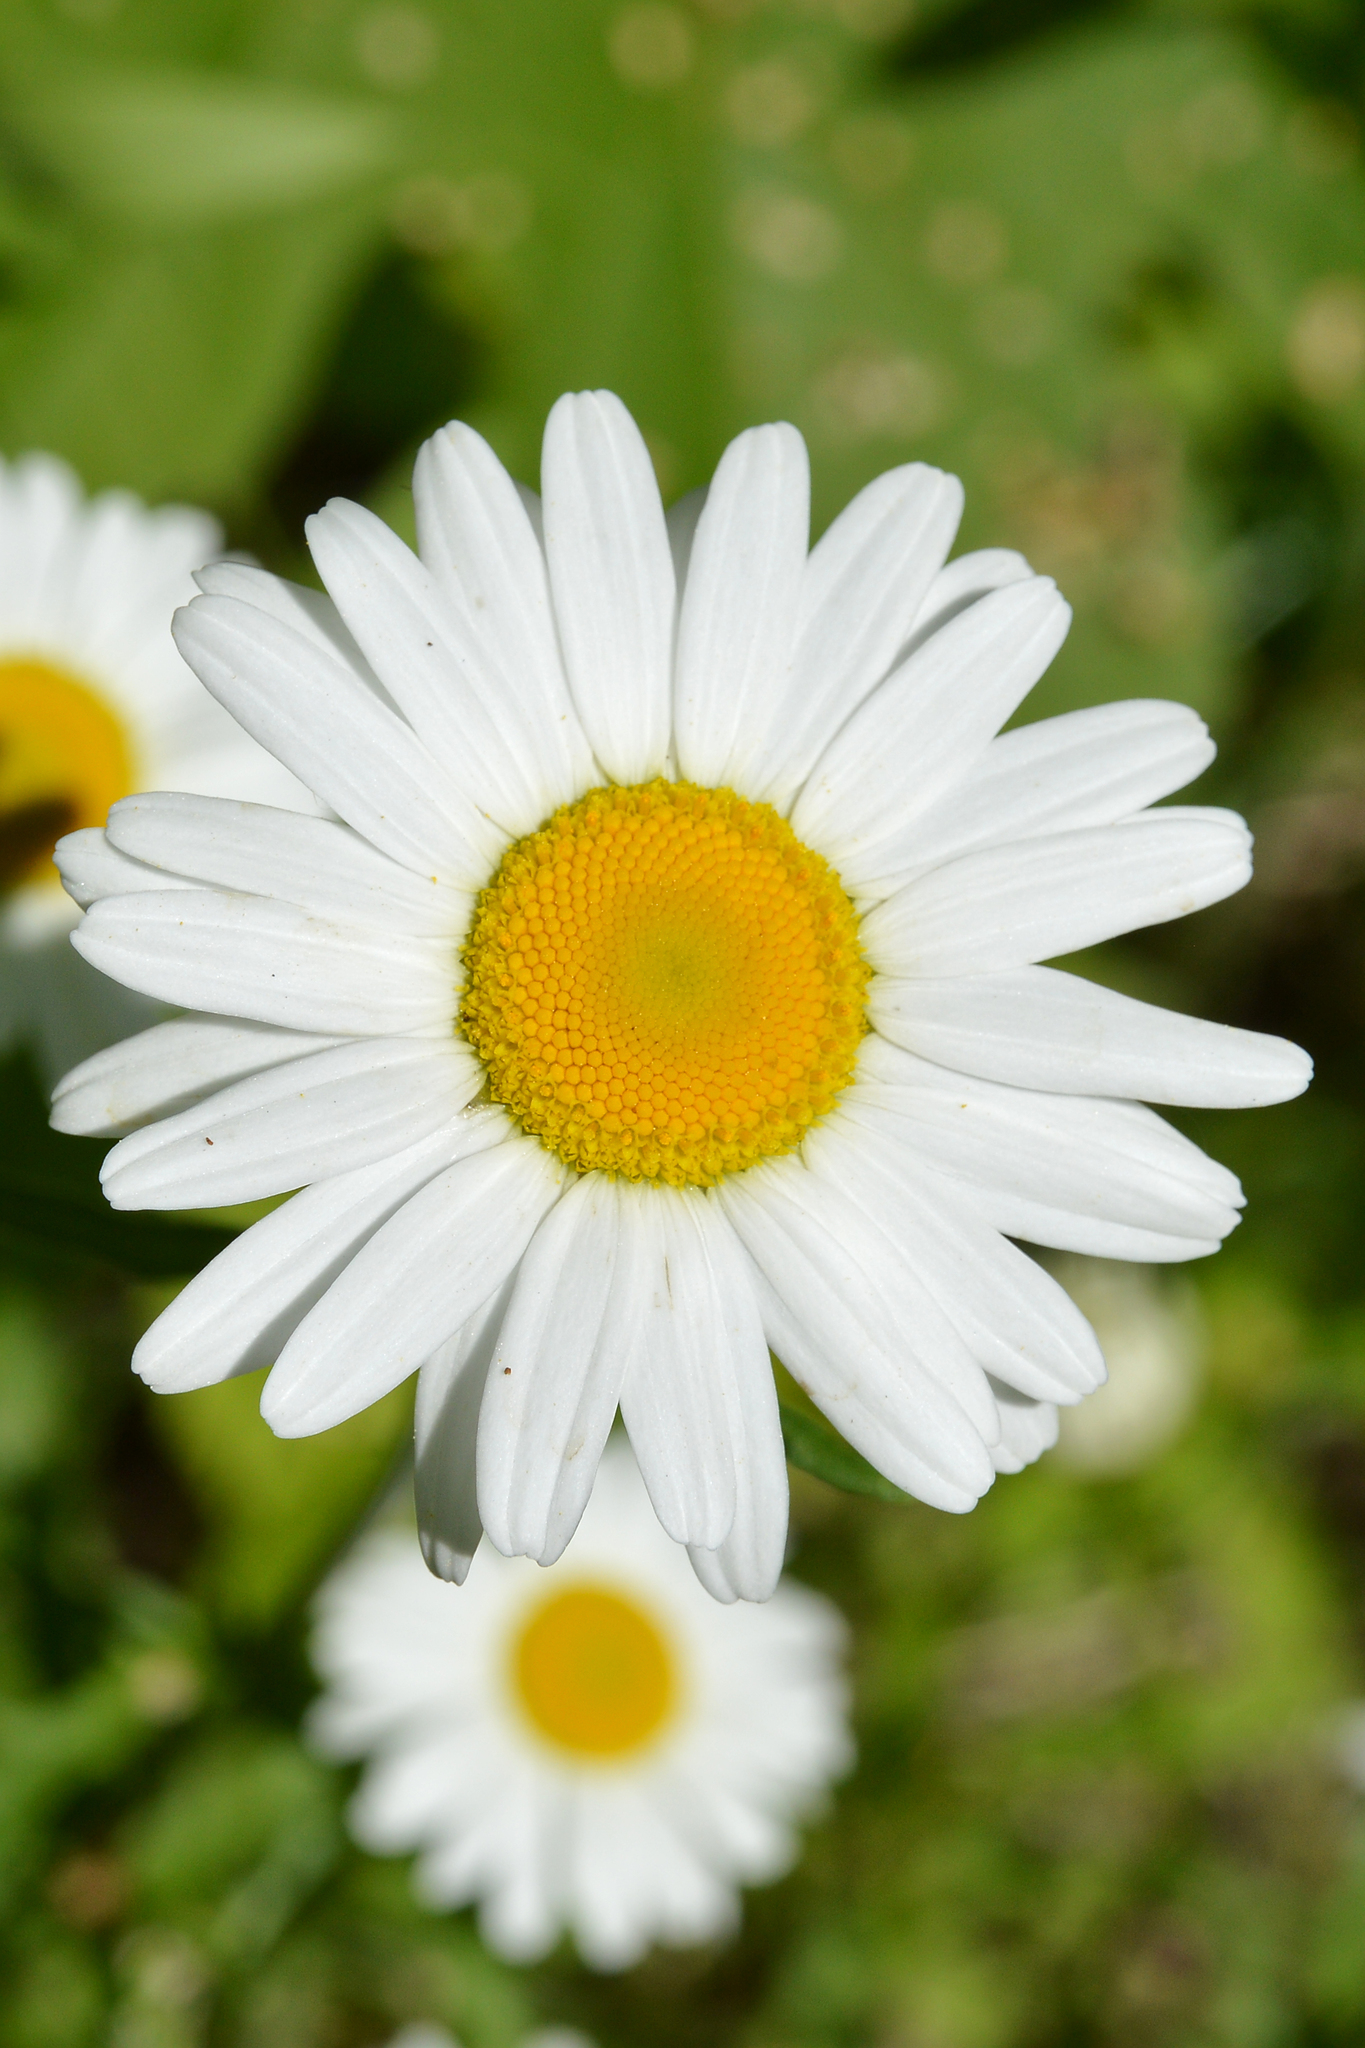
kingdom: Plantae
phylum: Tracheophyta
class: Magnoliopsida
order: Asterales
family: Asteraceae
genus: Leucanthemum
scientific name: Leucanthemum vulgare
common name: Oxeye daisy
